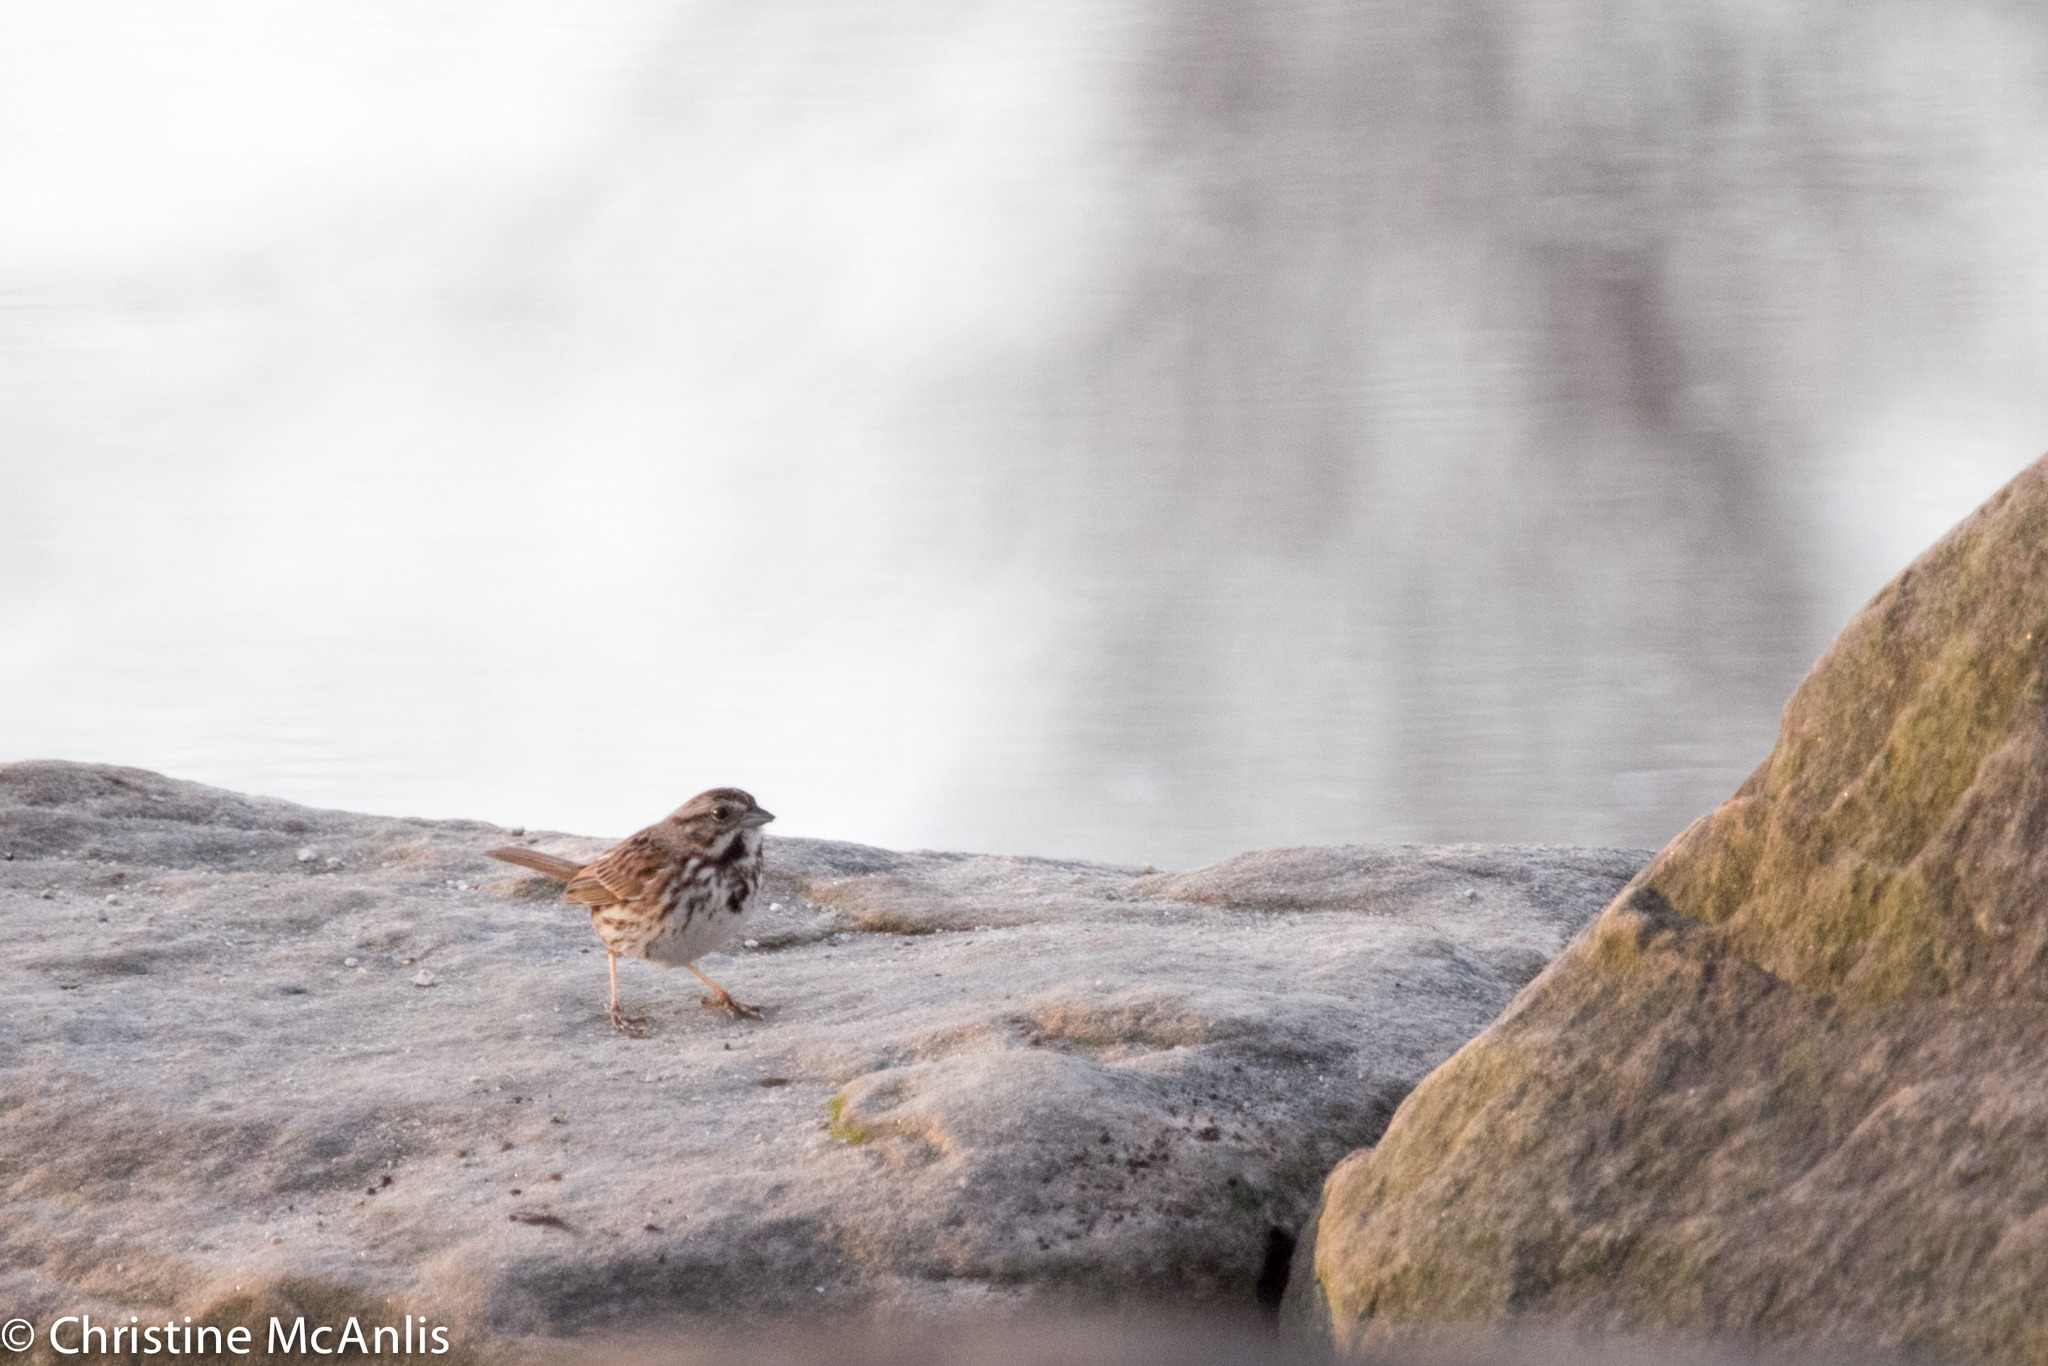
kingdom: Animalia
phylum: Chordata
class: Aves
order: Passeriformes
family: Passerellidae
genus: Melospiza
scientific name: Melospiza melodia
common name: Song sparrow
